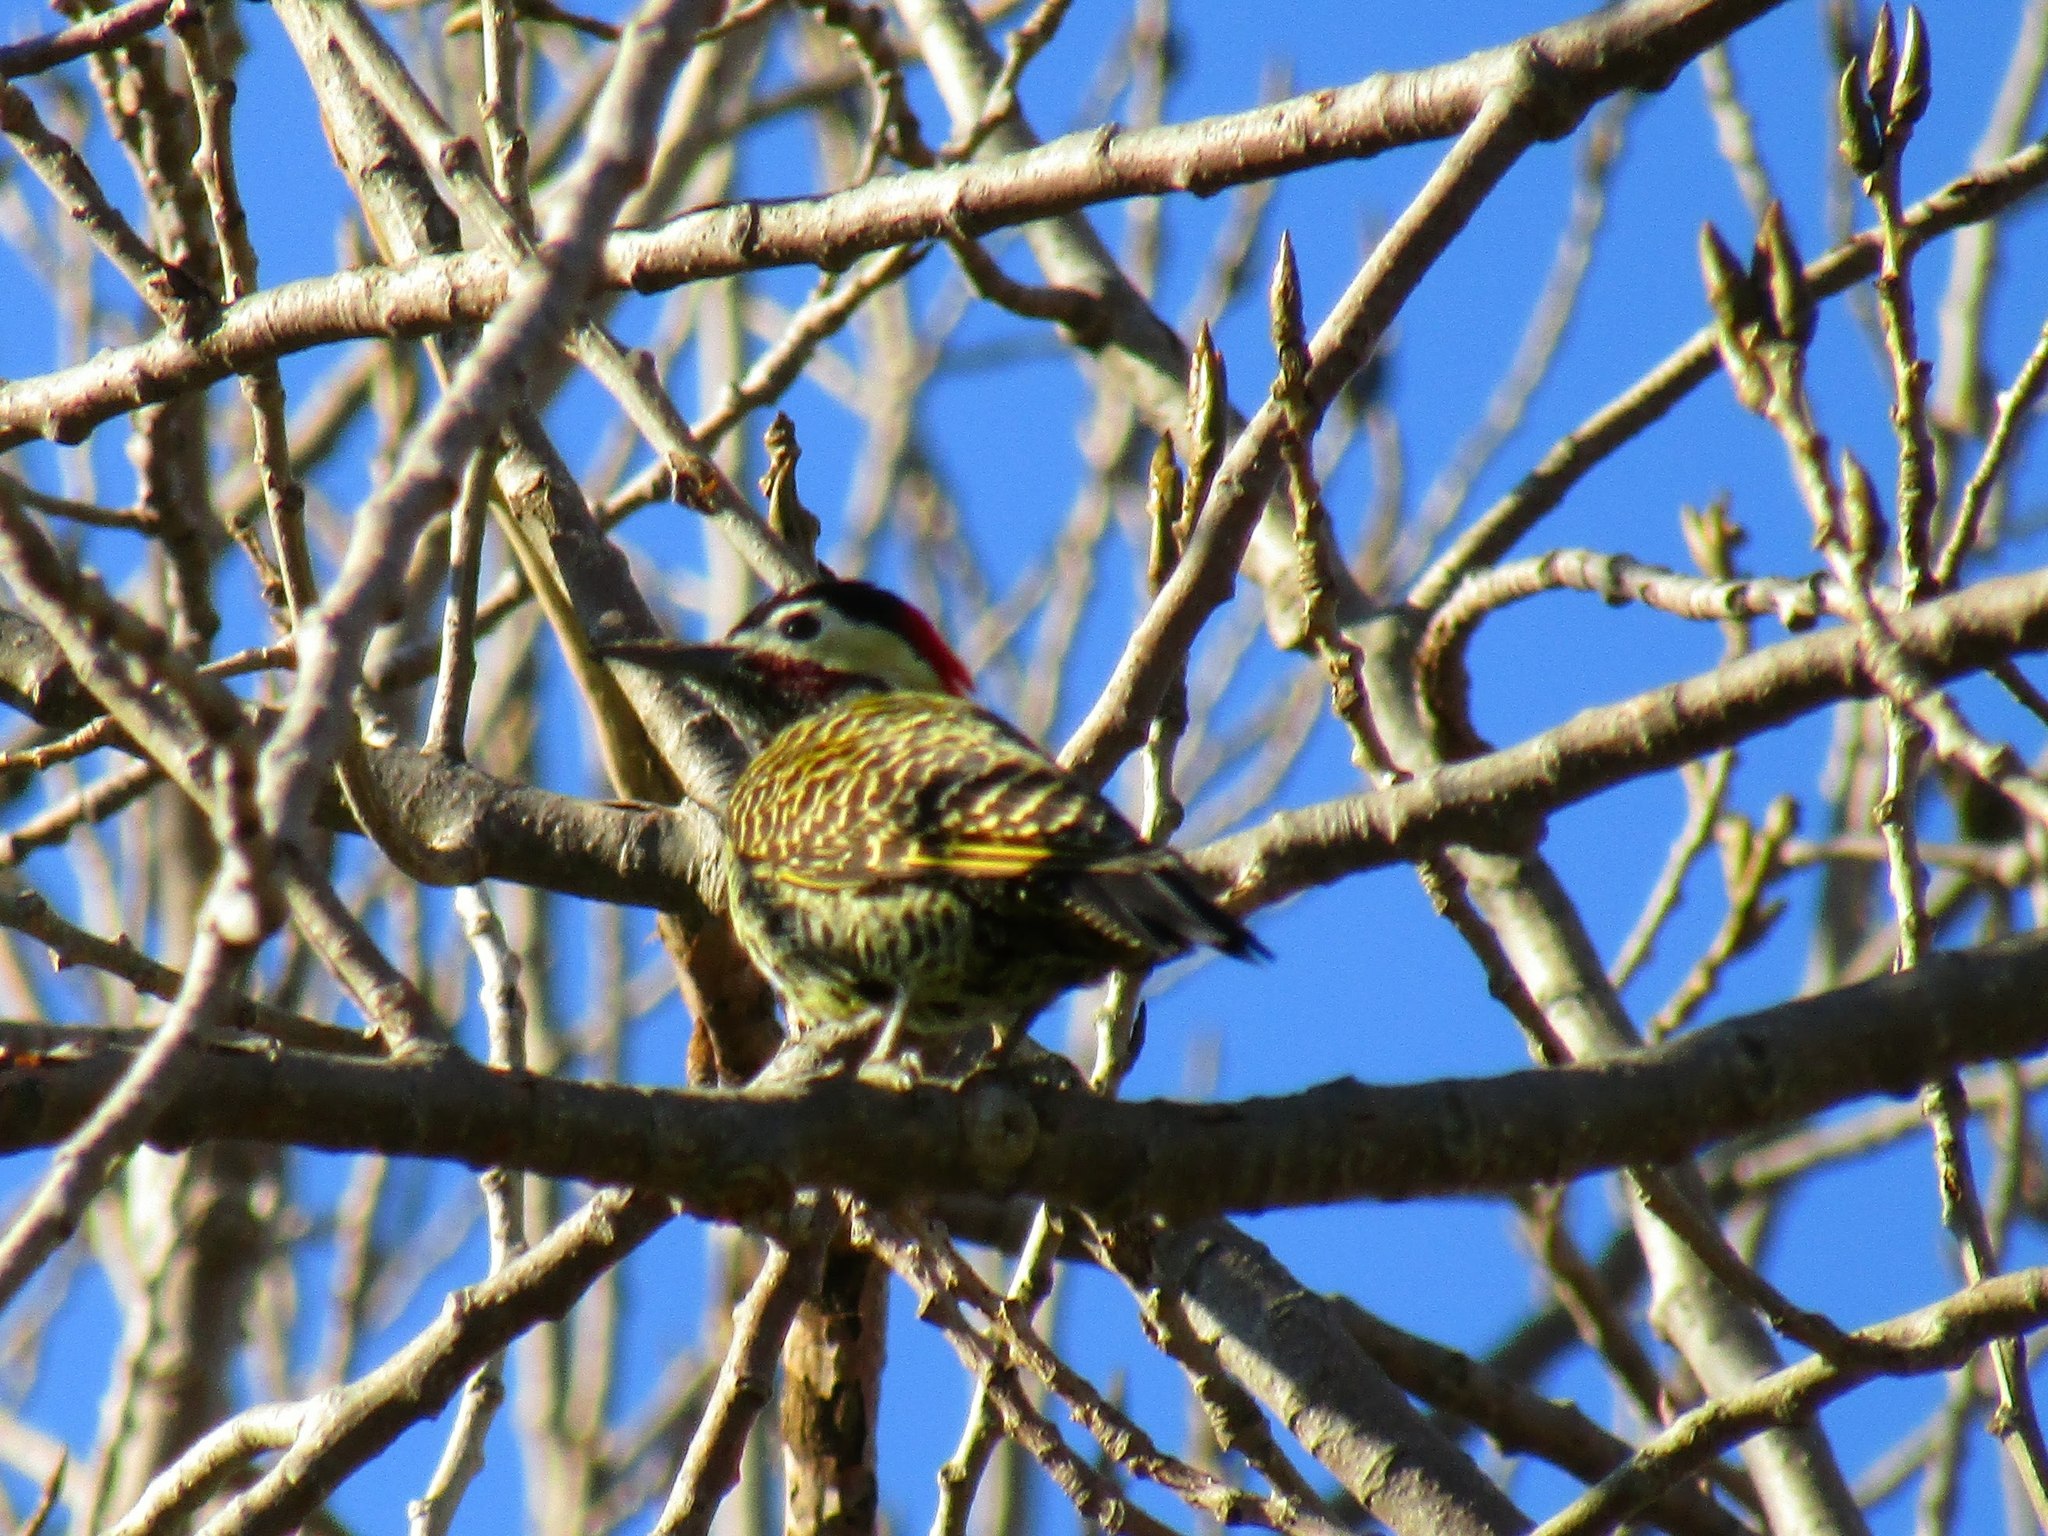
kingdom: Animalia
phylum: Chordata
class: Aves
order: Piciformes
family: Picidae
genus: Colaptes
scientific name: Colaptes melanochloros
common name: Green-barred woodpecker
